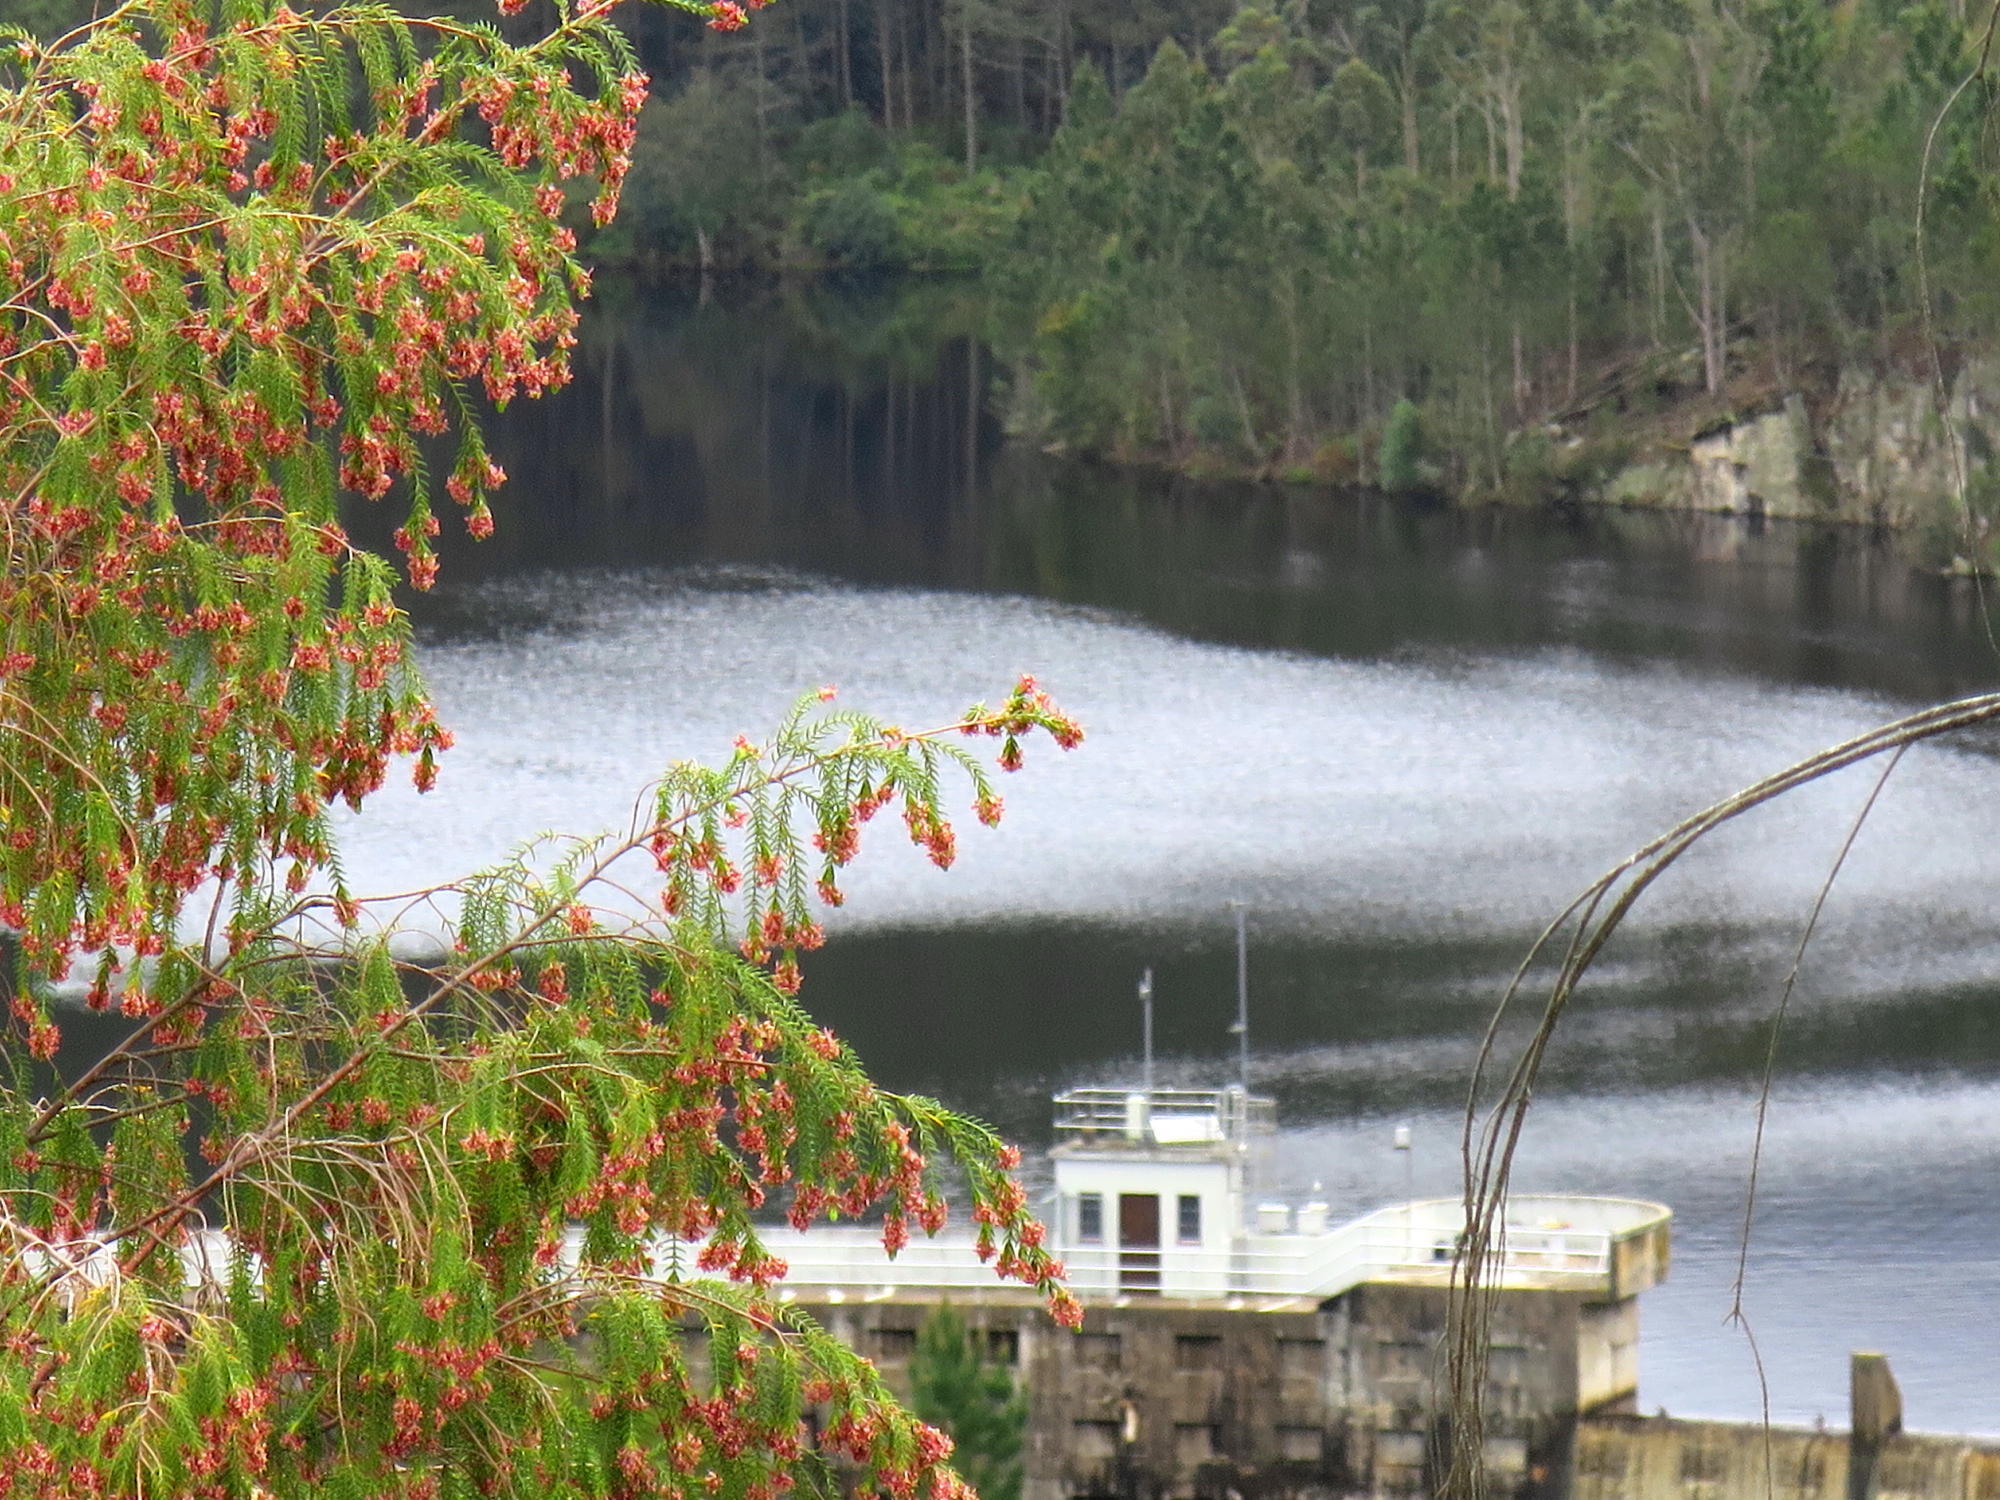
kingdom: Plantae
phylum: Tracheophyta
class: Magnoliopsida
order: Malvales
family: Thymelaeaceae
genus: Passerina
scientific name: Passerina falcifolia
